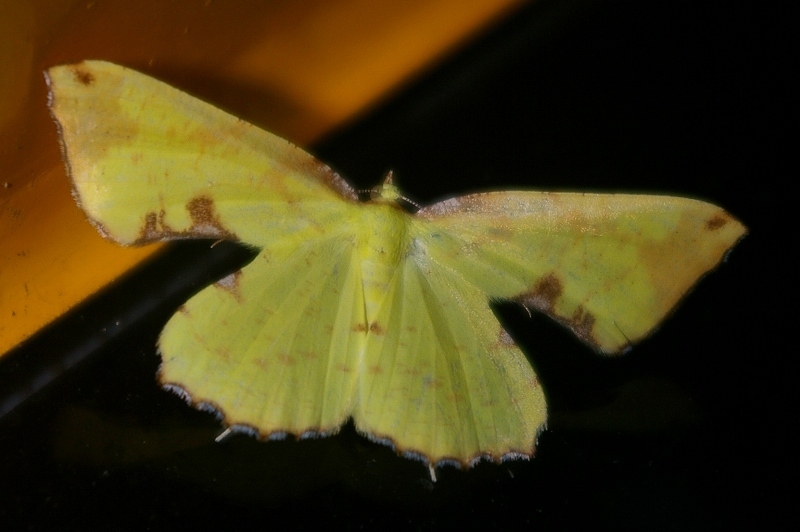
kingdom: Animalia
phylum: Arthropoda
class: Insecta
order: Lepidoptera
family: Geometridae
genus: Corymica
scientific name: Corymica pryeri
